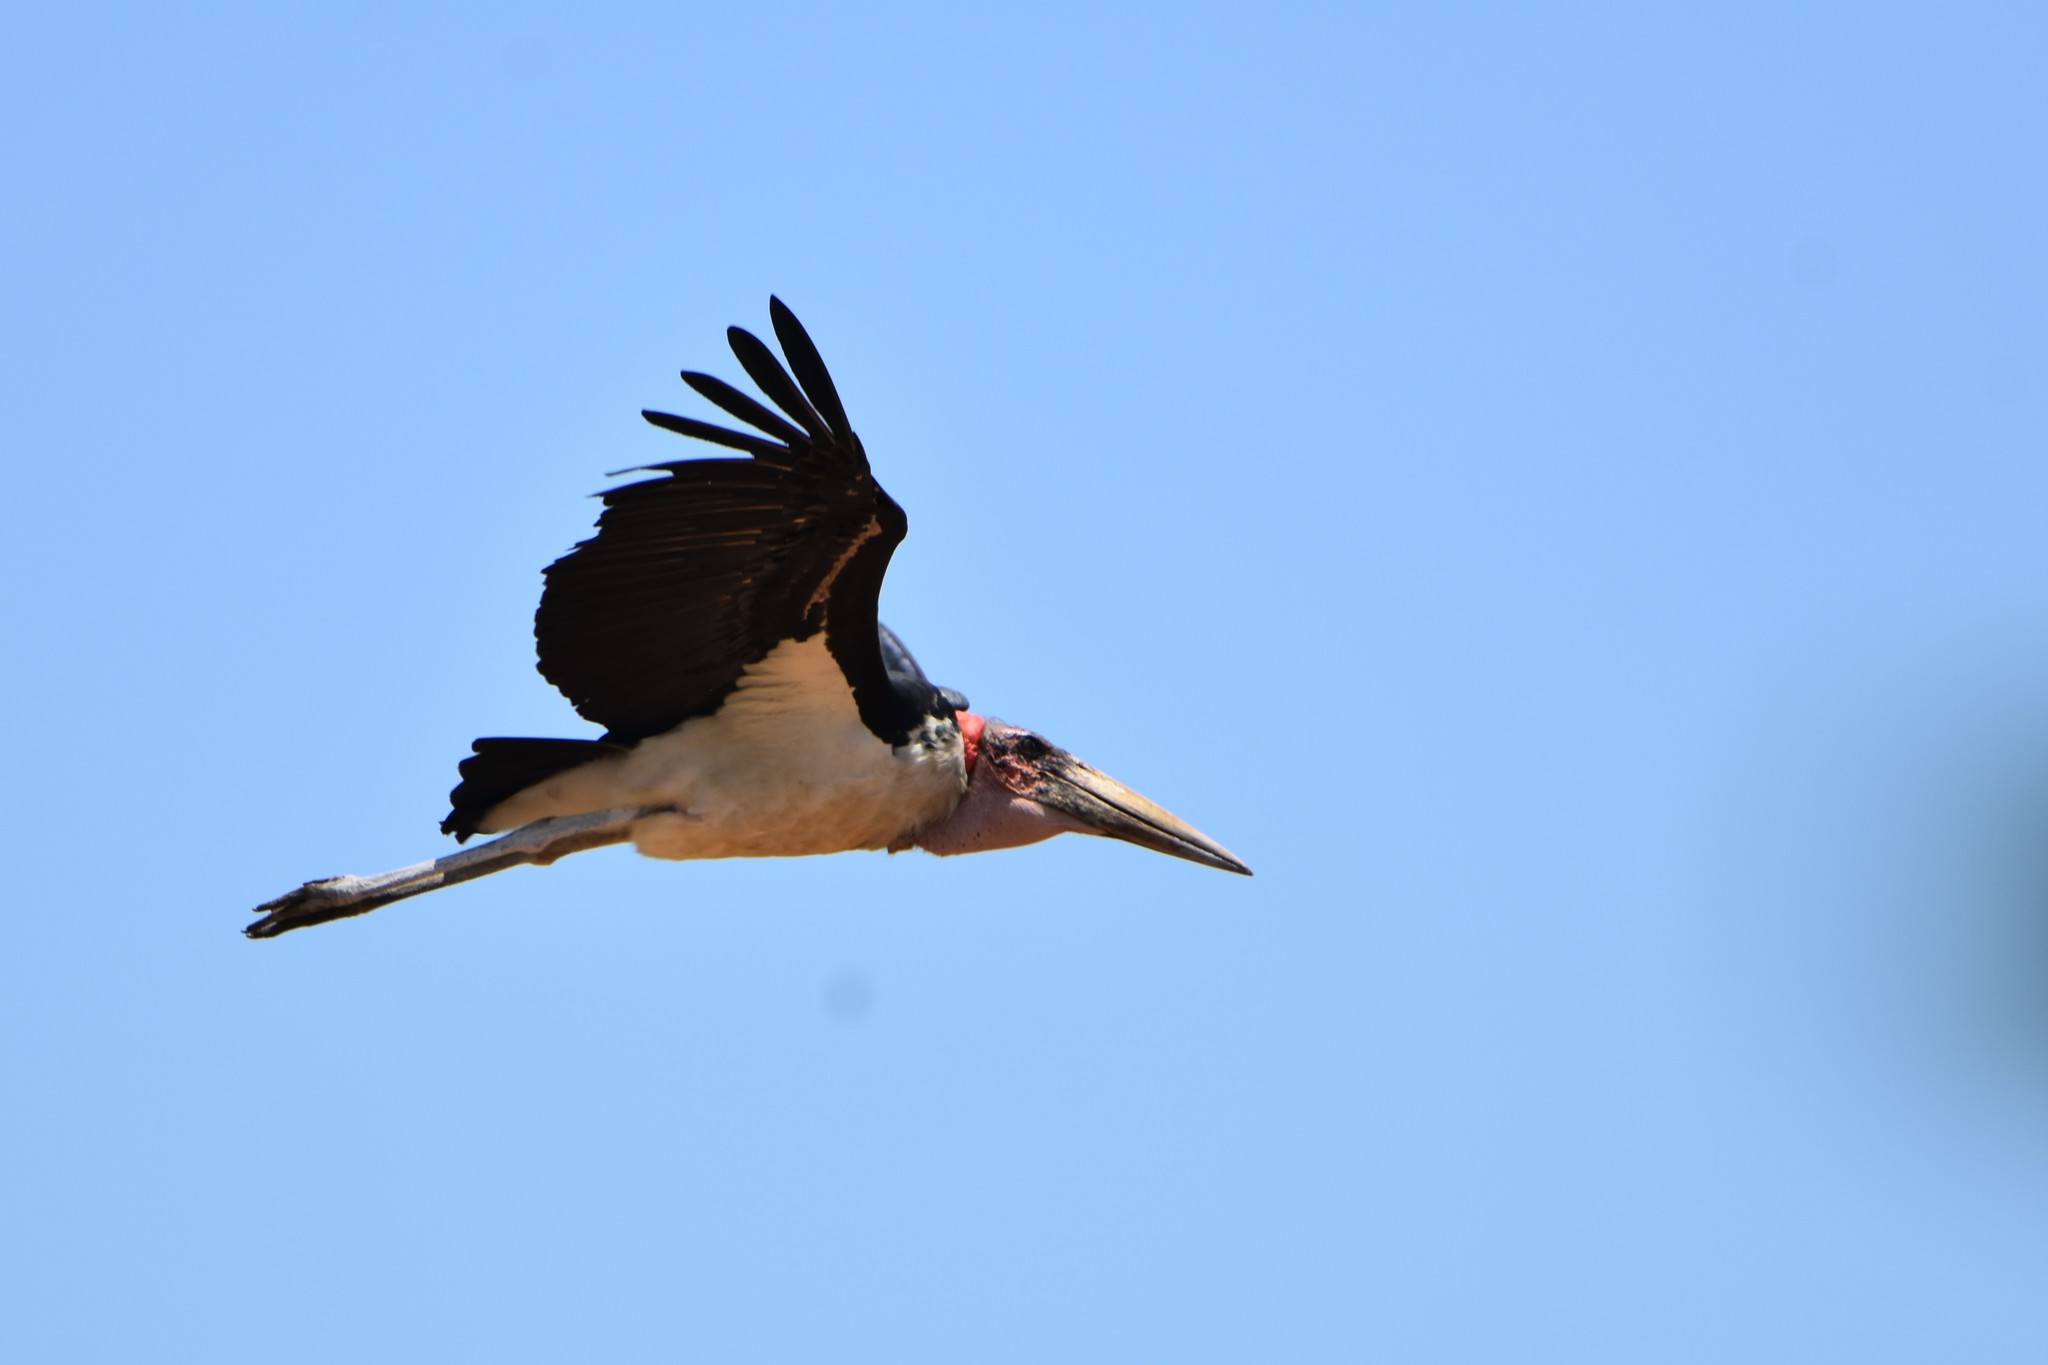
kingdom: Animalia
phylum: Chordata
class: Aves
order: Ciconiiformes
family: Ciconiidae
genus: Leptoptilos
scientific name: Leptoptilos crumenifer
